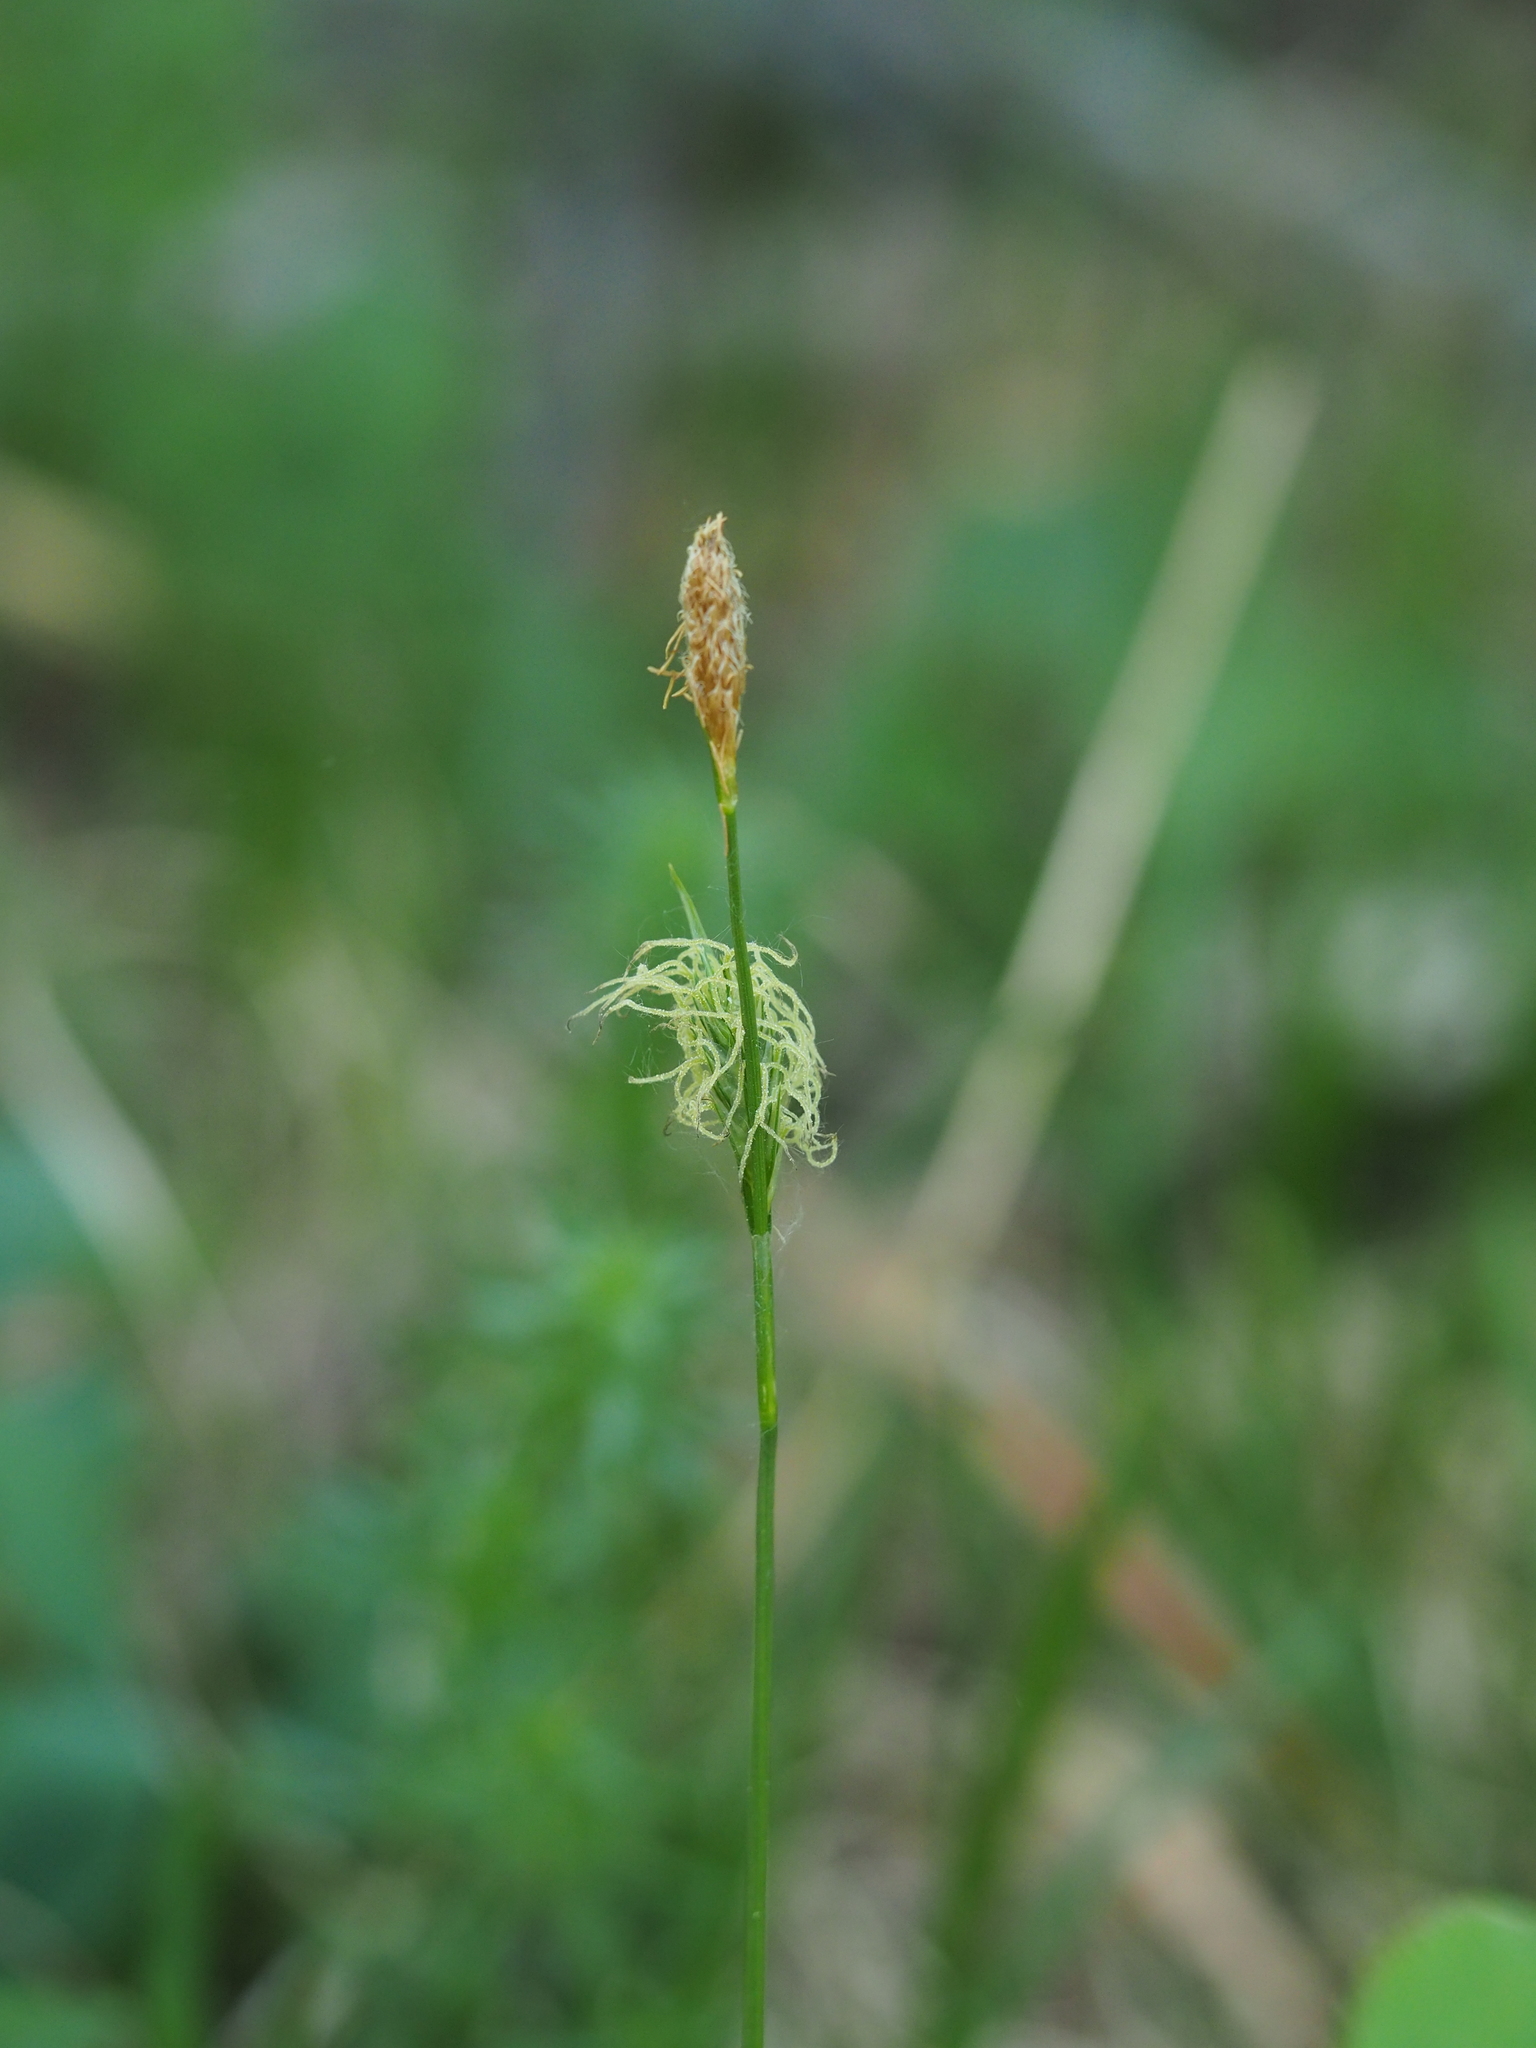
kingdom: Plantae
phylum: Tracheophyta
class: Liliopsida
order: Poales
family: Cyperaceae
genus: Carex
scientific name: Carex pilosa
